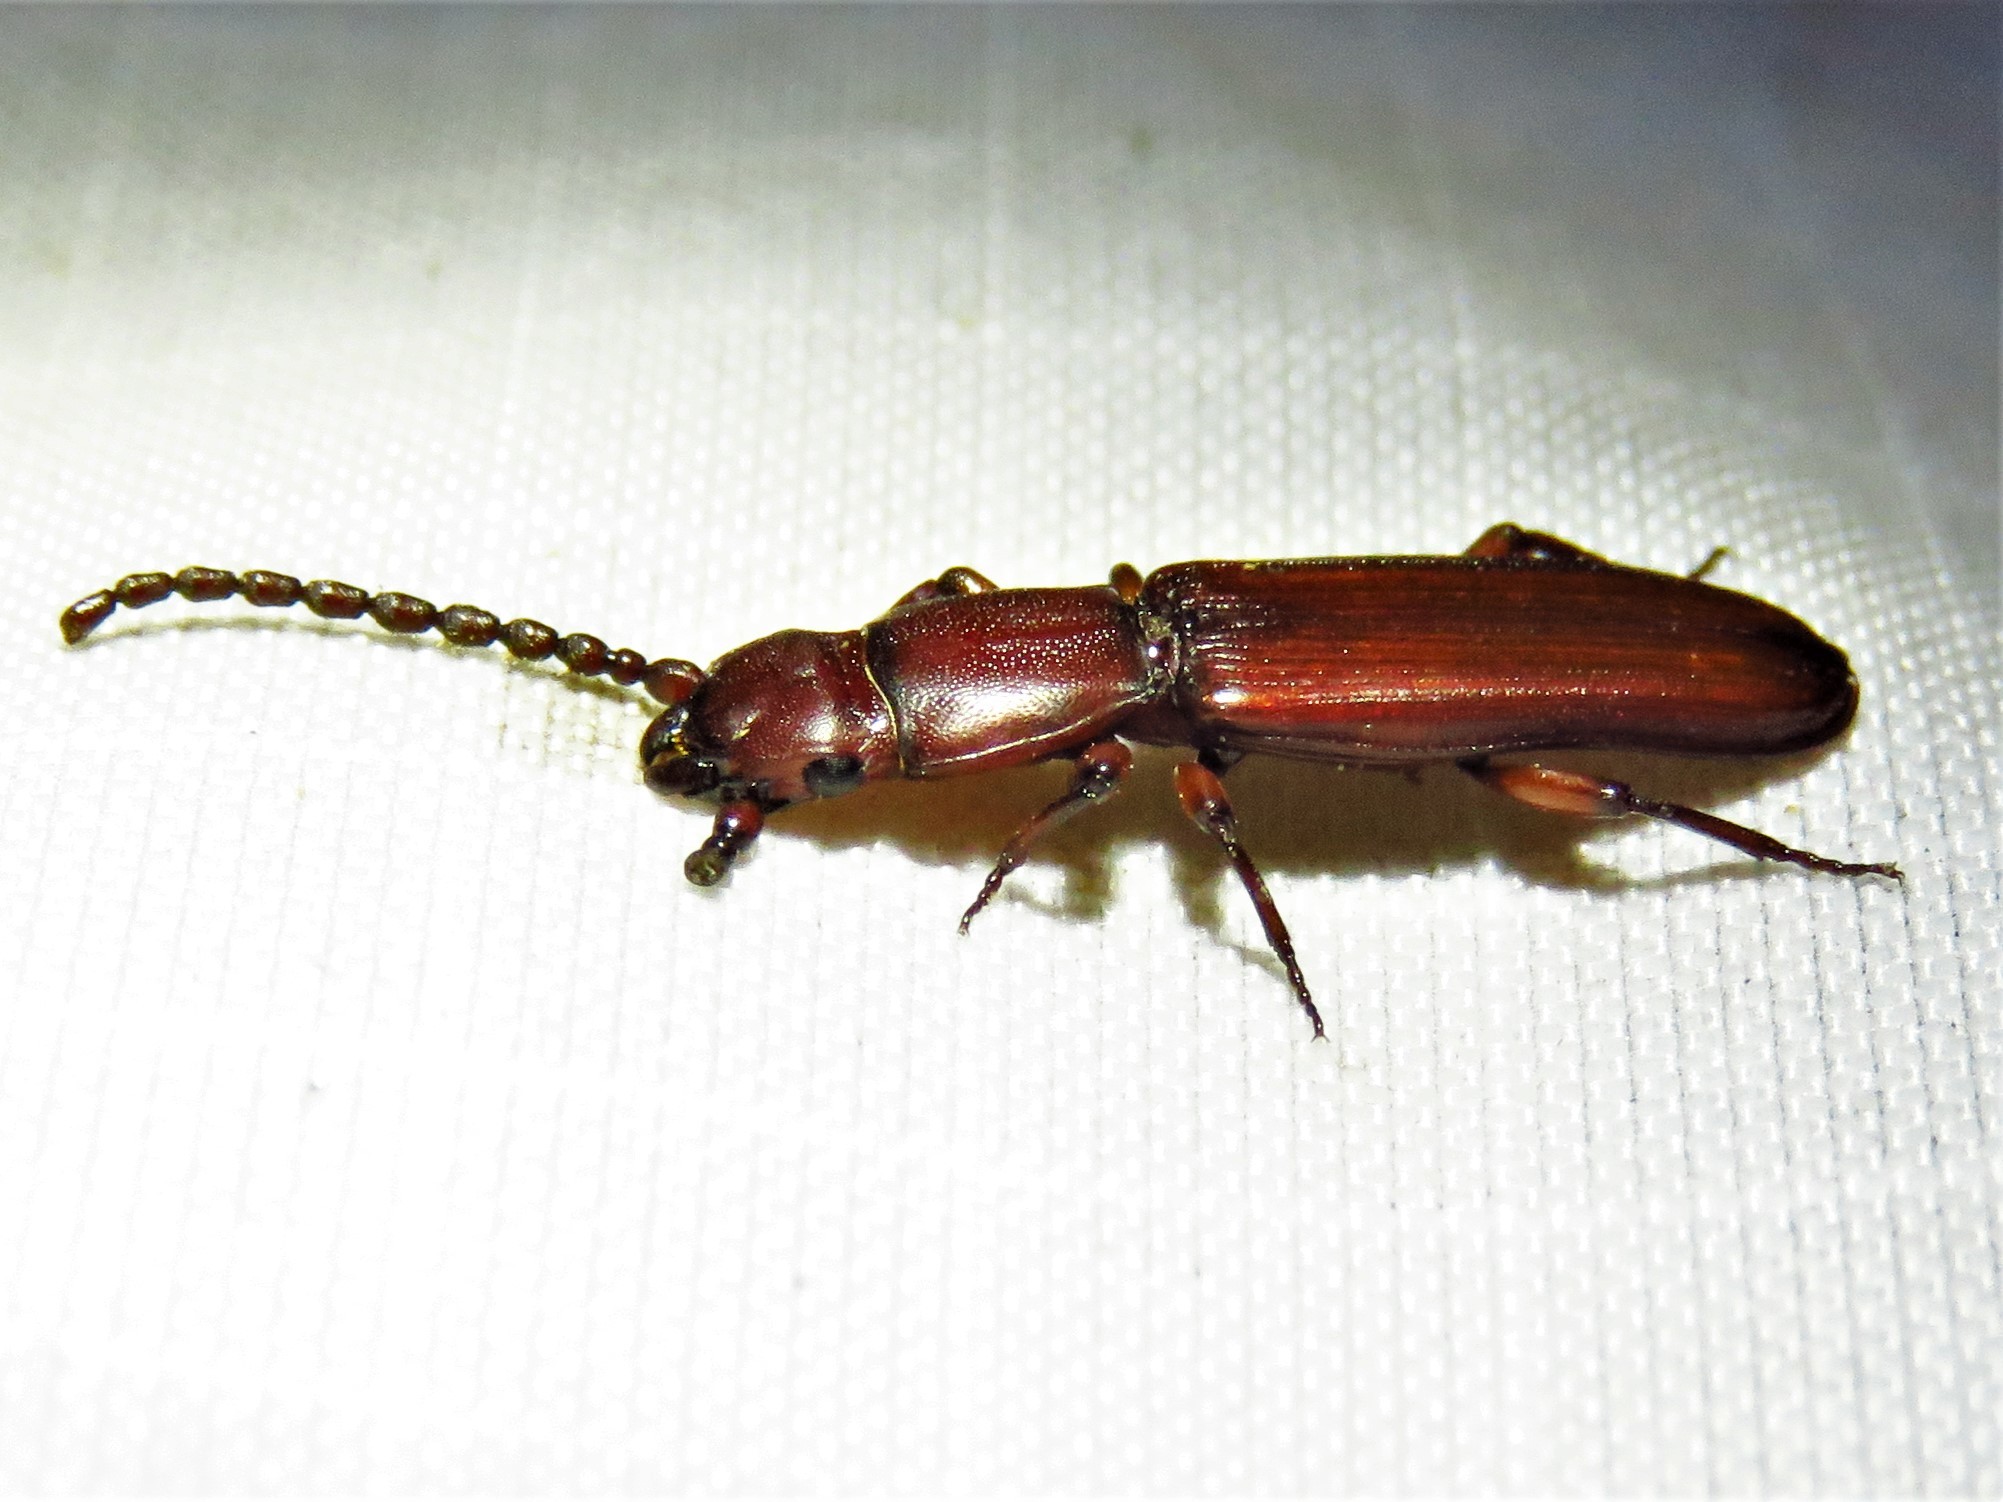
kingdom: Animalia
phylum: Arthropoda
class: Insecta
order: Coleoptera
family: Passandridae
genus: Catogenus
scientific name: Catogenus rufus
